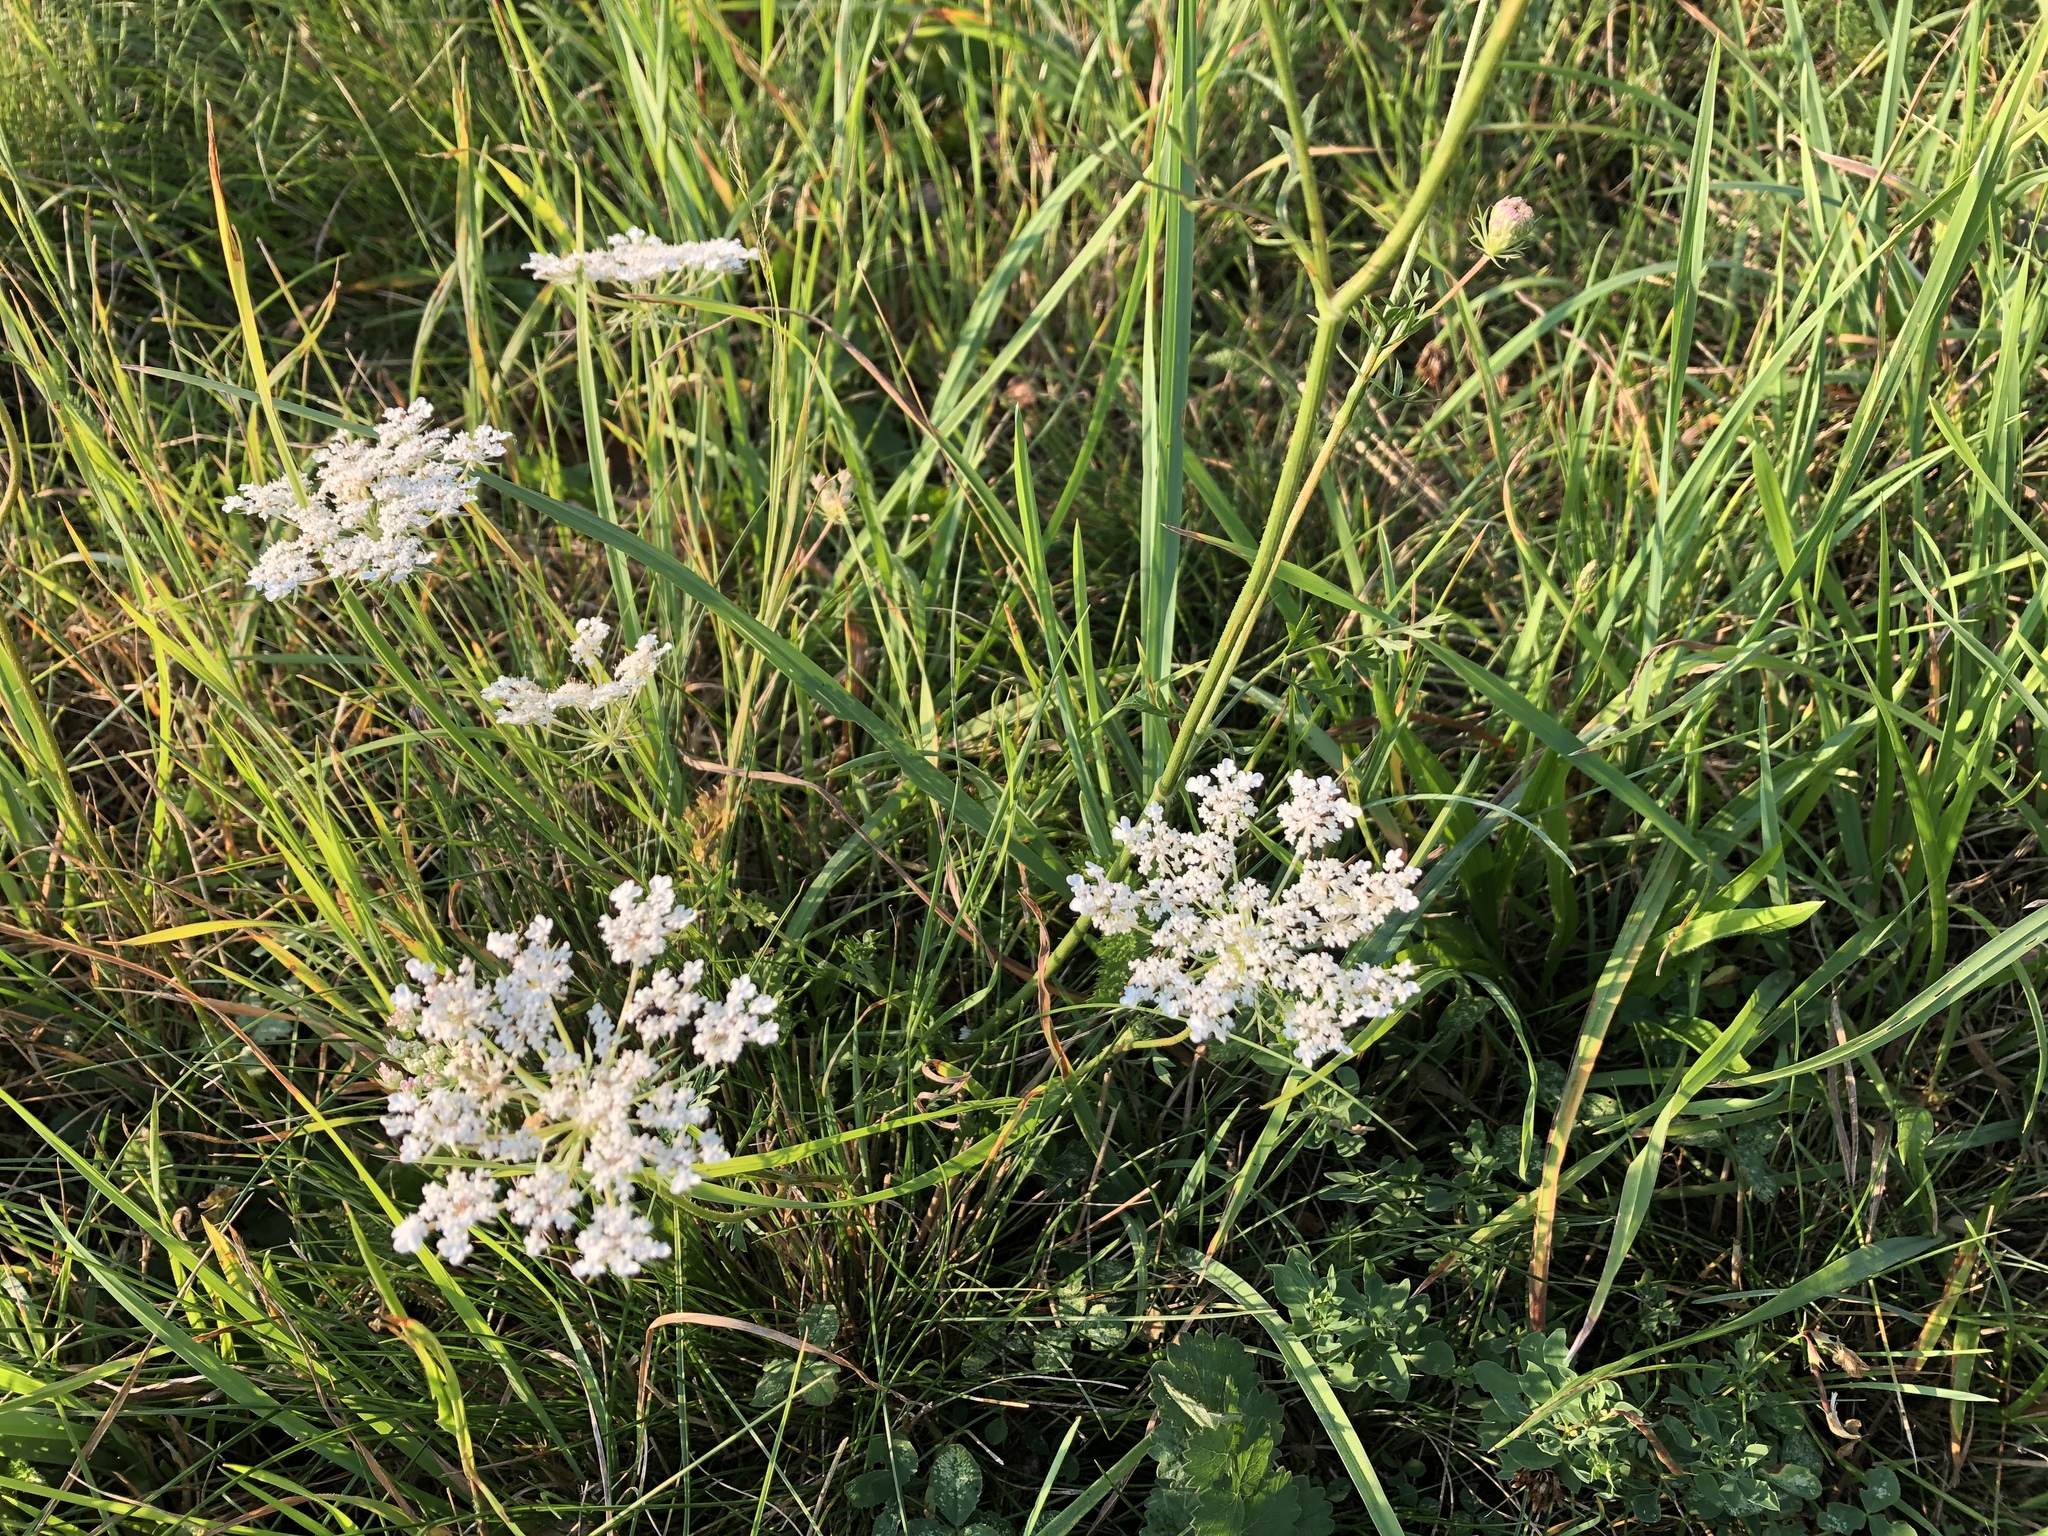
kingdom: Plantae
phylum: Tracheophyta
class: Magnoliopsida
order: Apiales
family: Apiaceae
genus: Daucus
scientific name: Daucus carota
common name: Wild carrot
